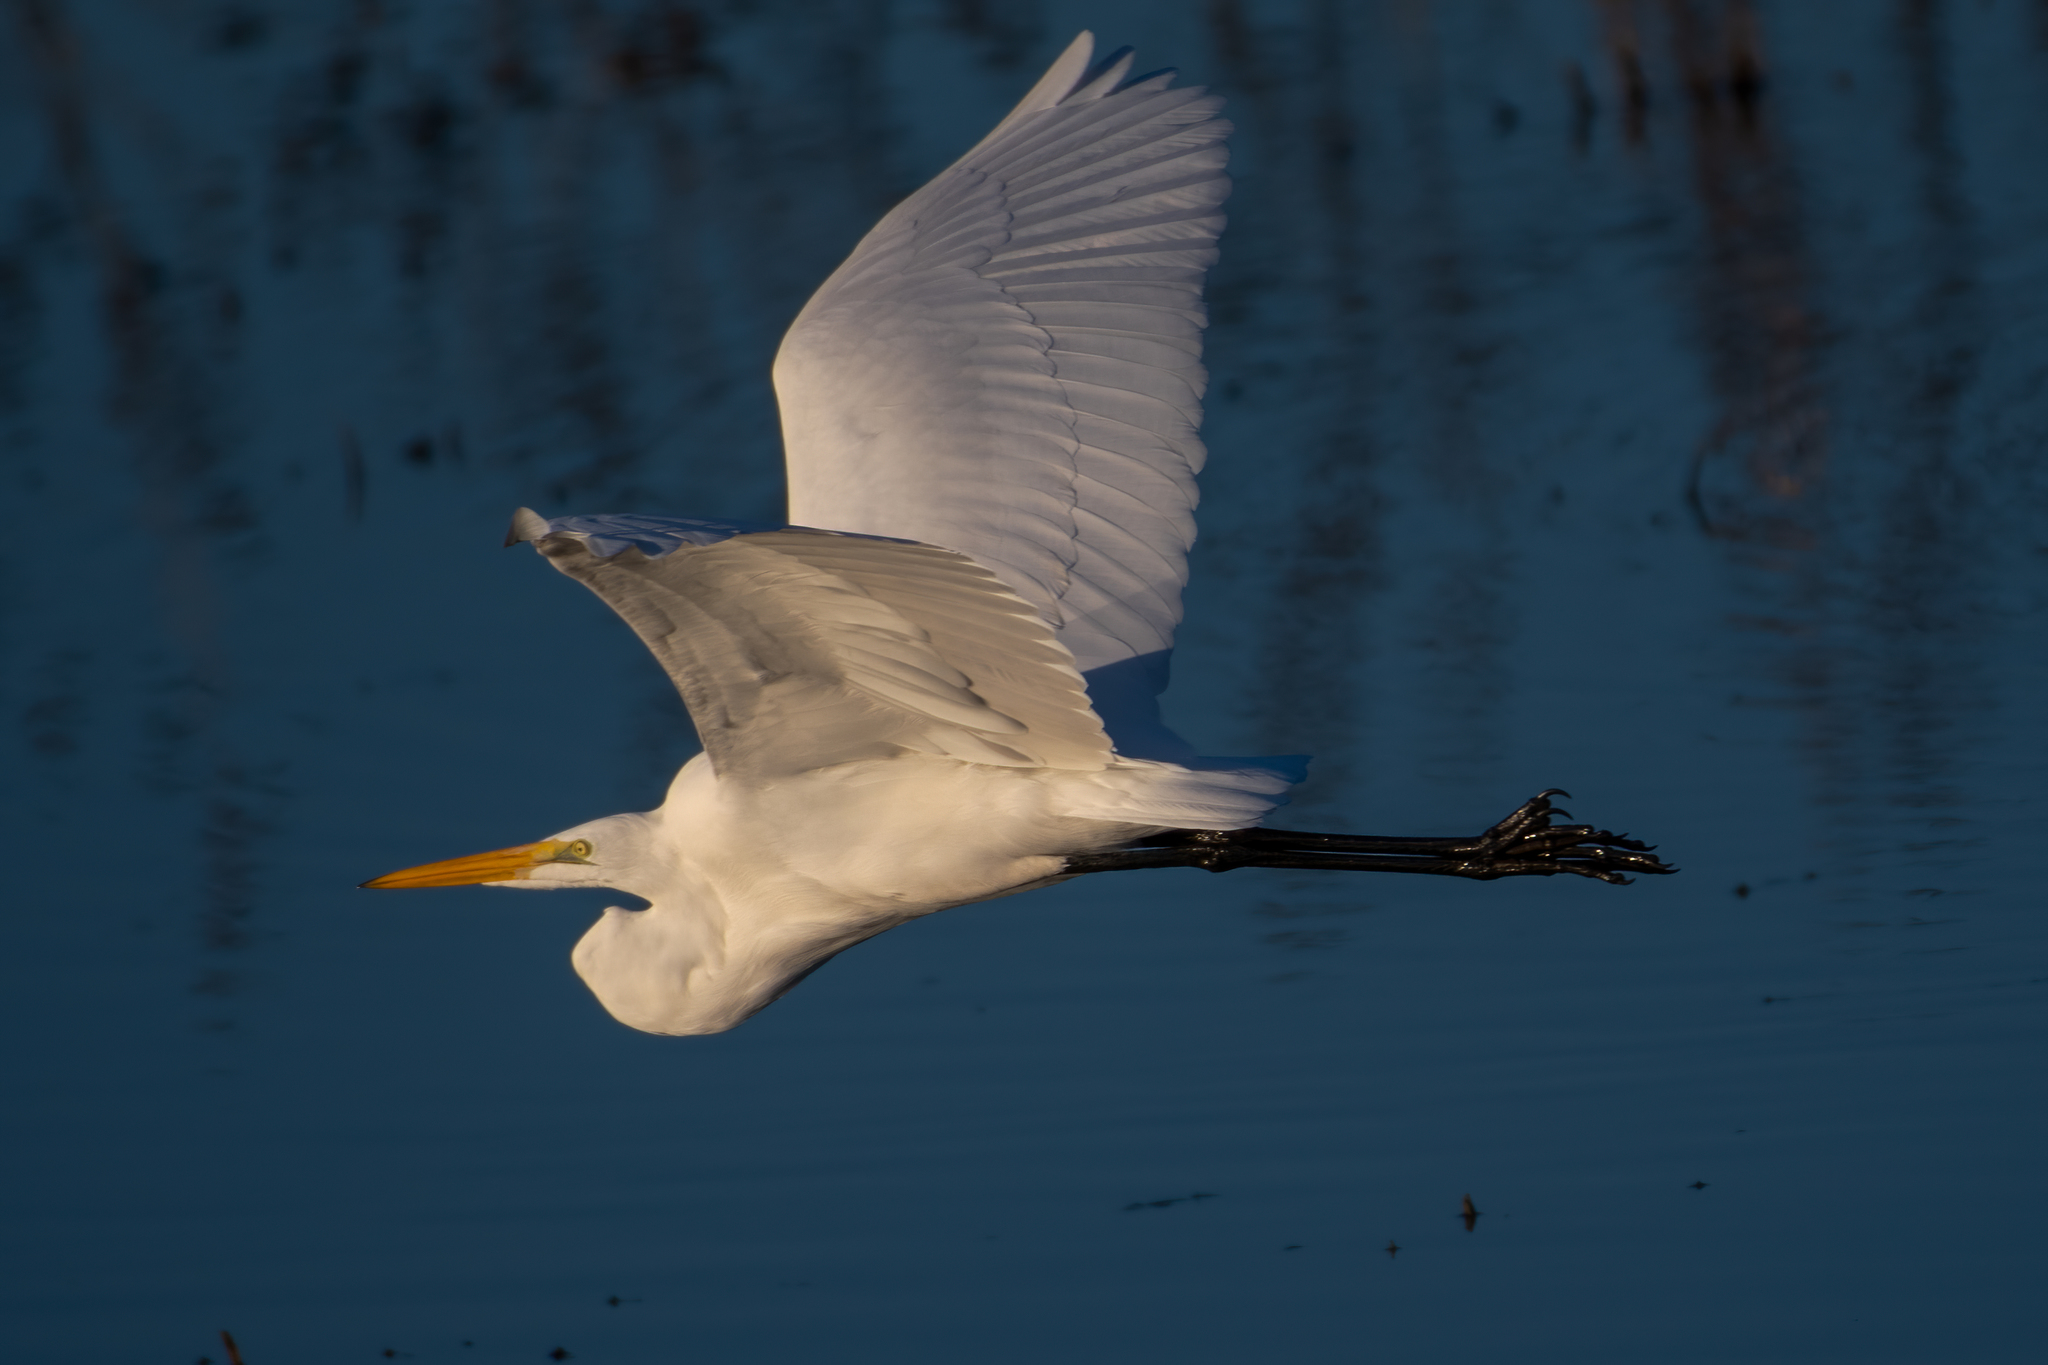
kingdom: Animalia
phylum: Chordata
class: Aves
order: Pelecaniformes
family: Ardeidae
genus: Ardea
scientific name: Ardea alba
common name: Great egret
